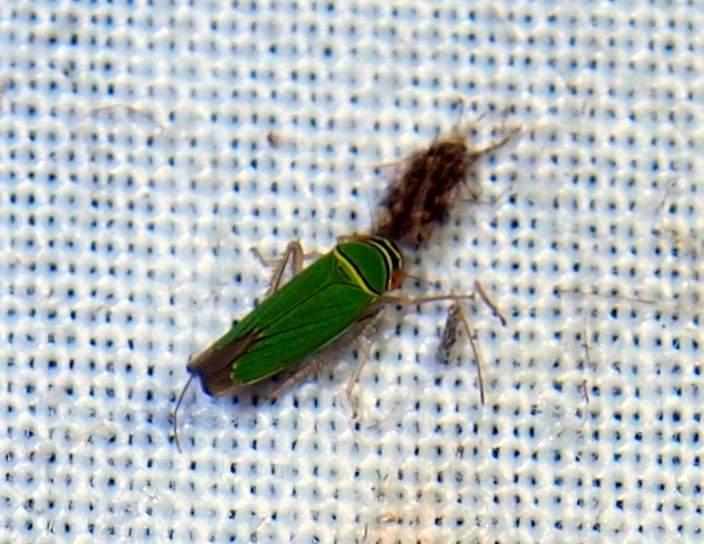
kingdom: Animalia
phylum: Arthropoda
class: Insecta
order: Hemiptera
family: Cicadellidae
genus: Tylozygus
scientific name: Tylozygus geometricus
